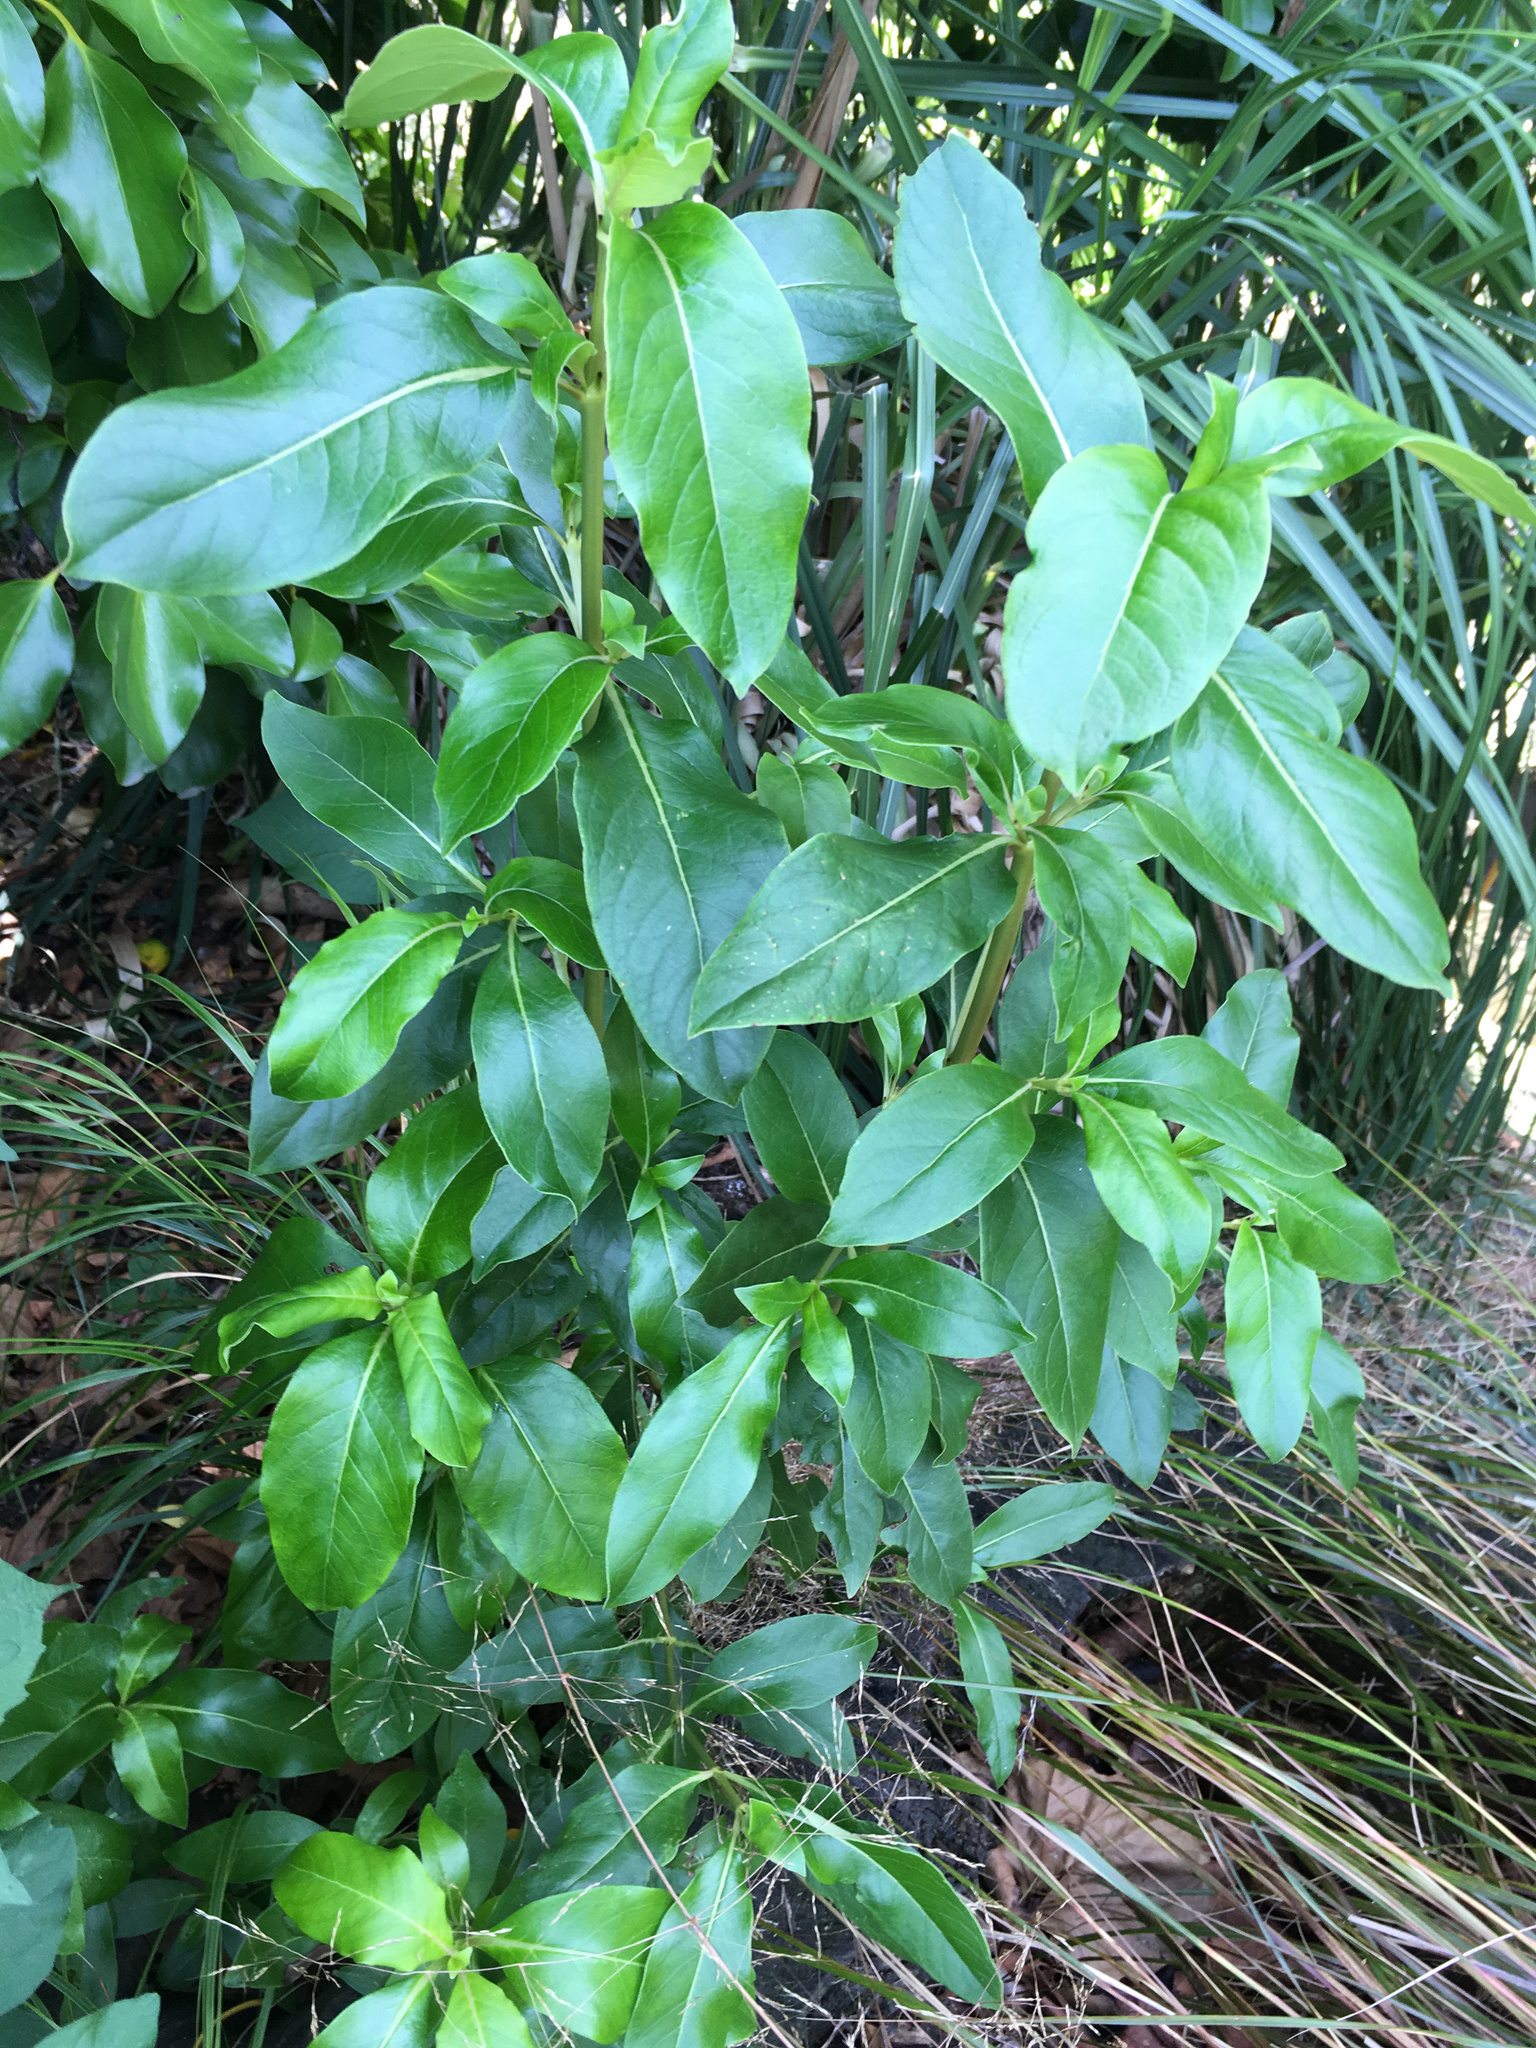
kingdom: Plantae
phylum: Tracheophyta
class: Magnoliopsida
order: Gentianales
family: Rubiaceae
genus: Coprosma
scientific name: Coprosma robusta
